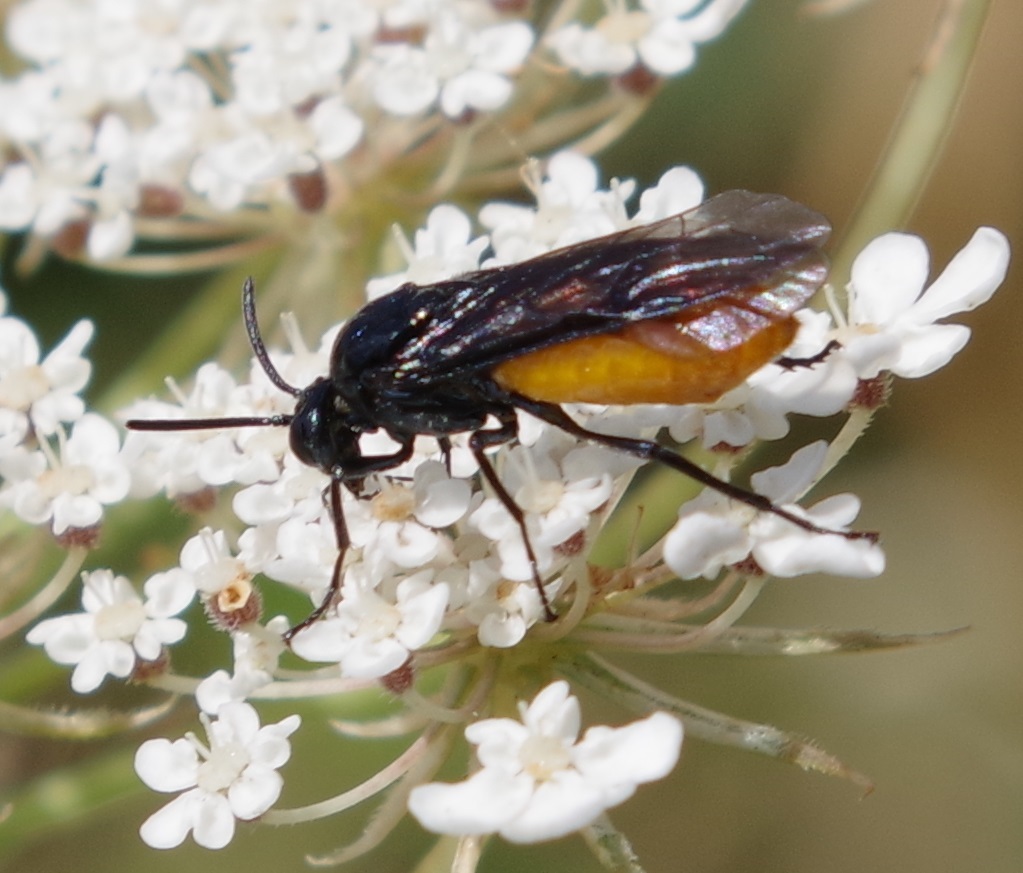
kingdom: Animalia
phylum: Arthropoda
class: Insecta
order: Hymenoptera
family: Argidae
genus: Arge
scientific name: Arge pagana
